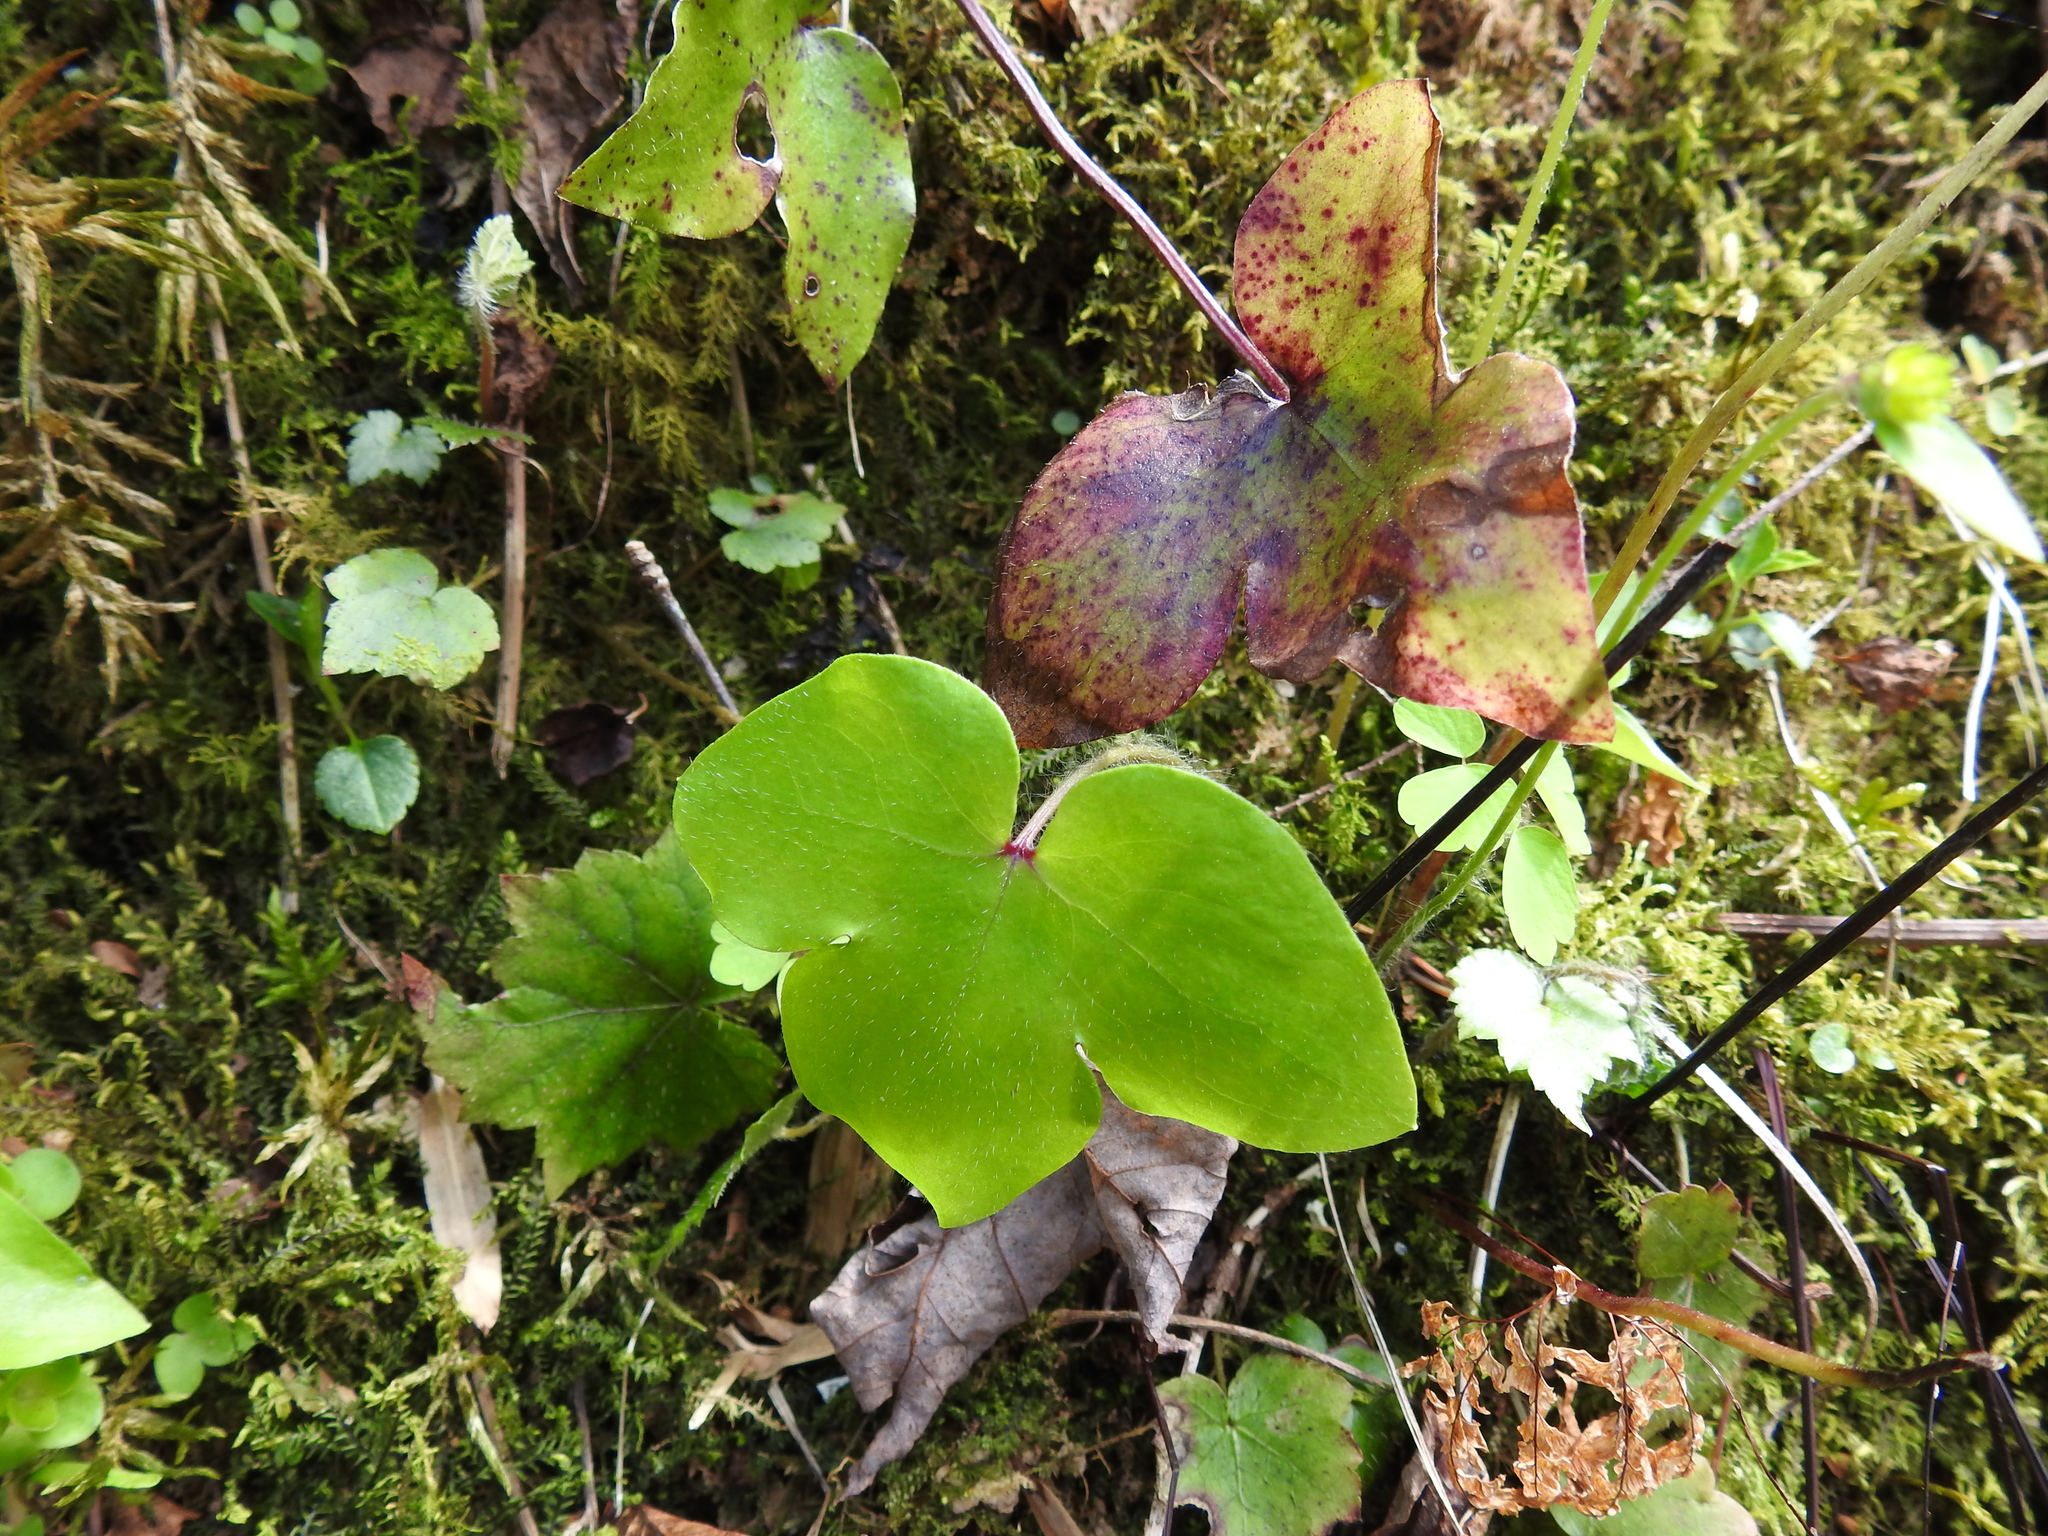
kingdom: Plantae
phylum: Tracheophyta
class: Magnoliopsida
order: Ranunculales
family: Ranunculaceae
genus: Hepatica
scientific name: Hepatica acutiloba
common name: Sharp-lobed hepatica
